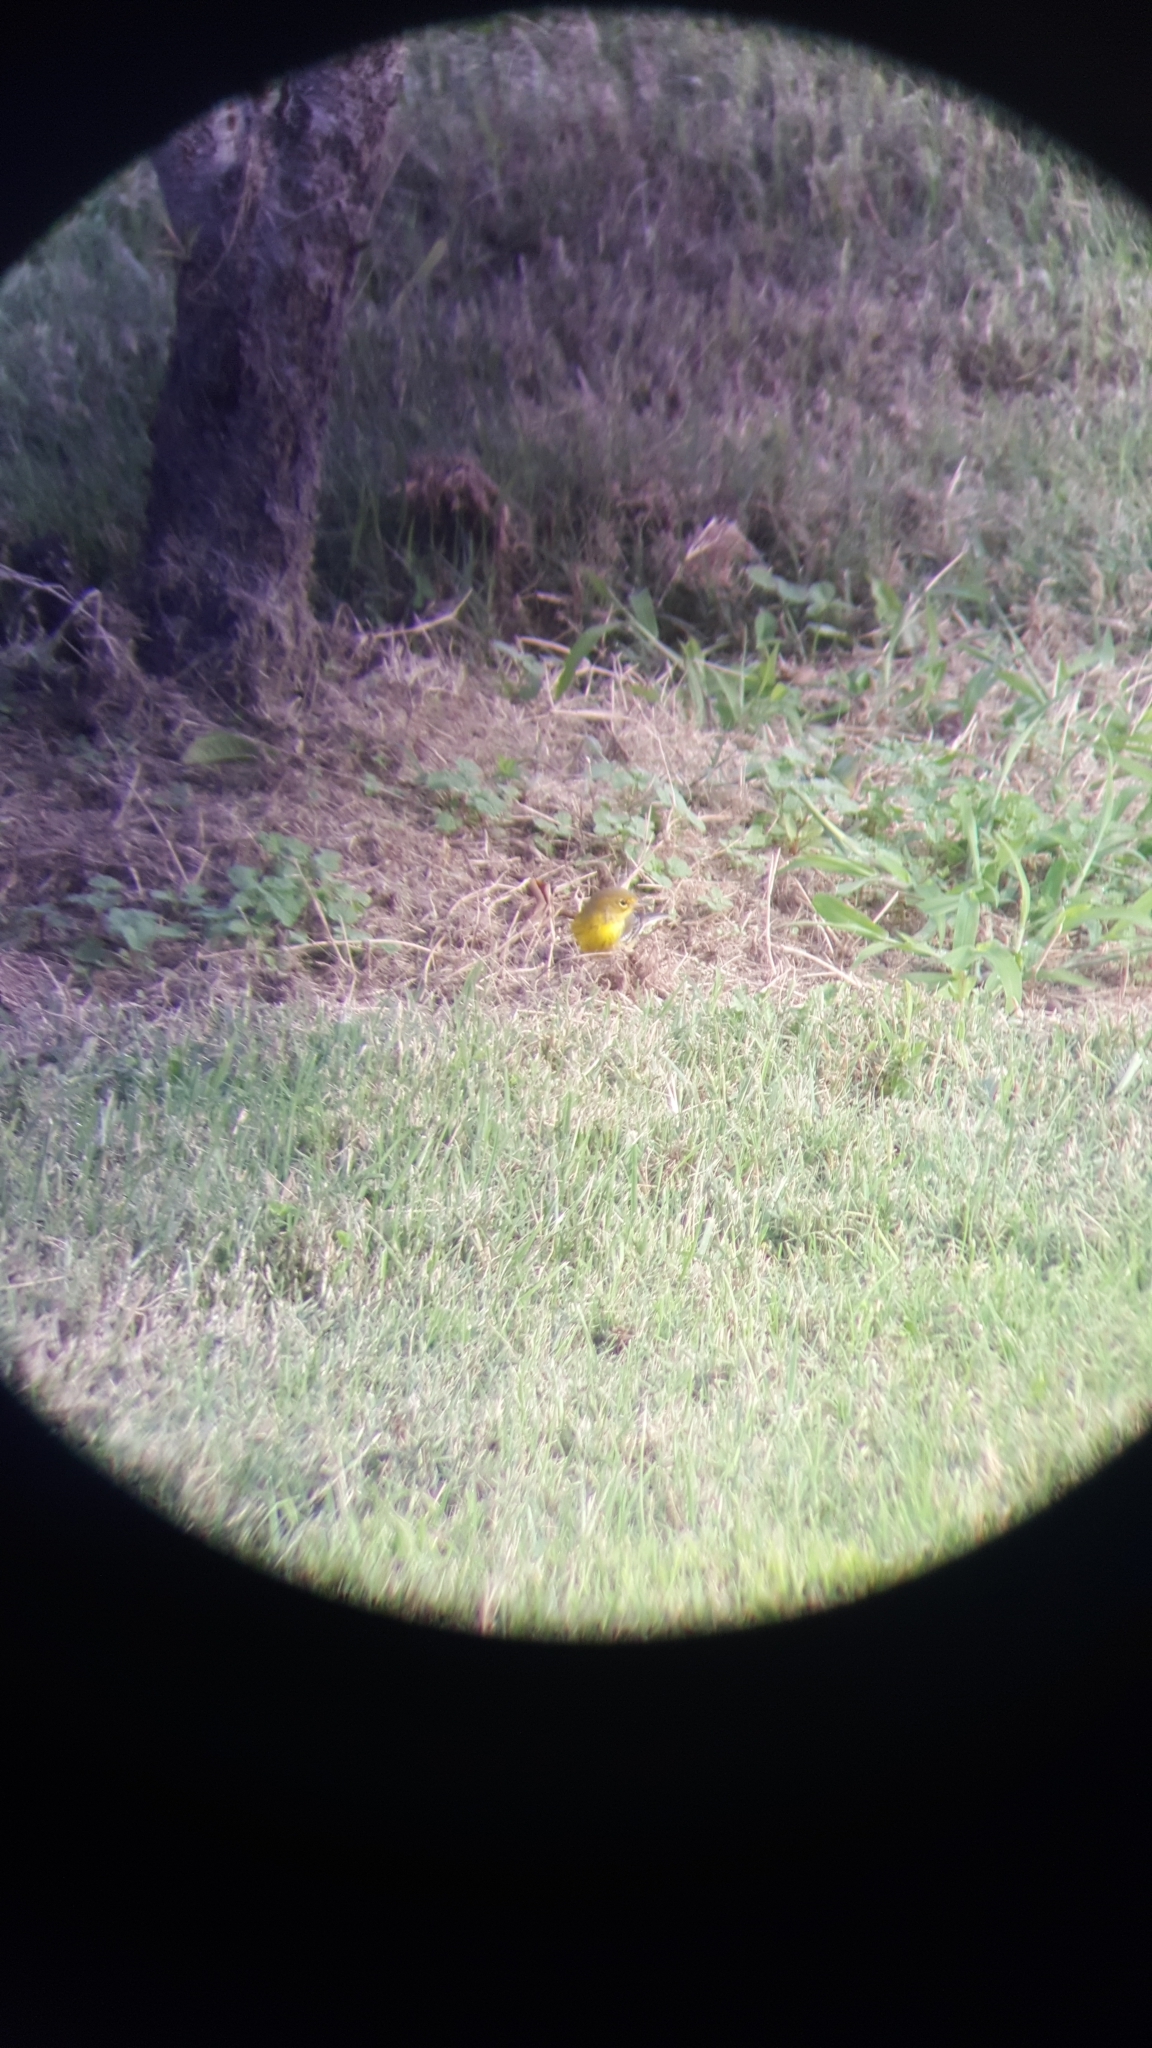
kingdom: Animalia
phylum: Chordata
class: Aves
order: Passeriformes
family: Parulidae
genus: Setophaga
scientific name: Setophaga pinus
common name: Pine warbler
